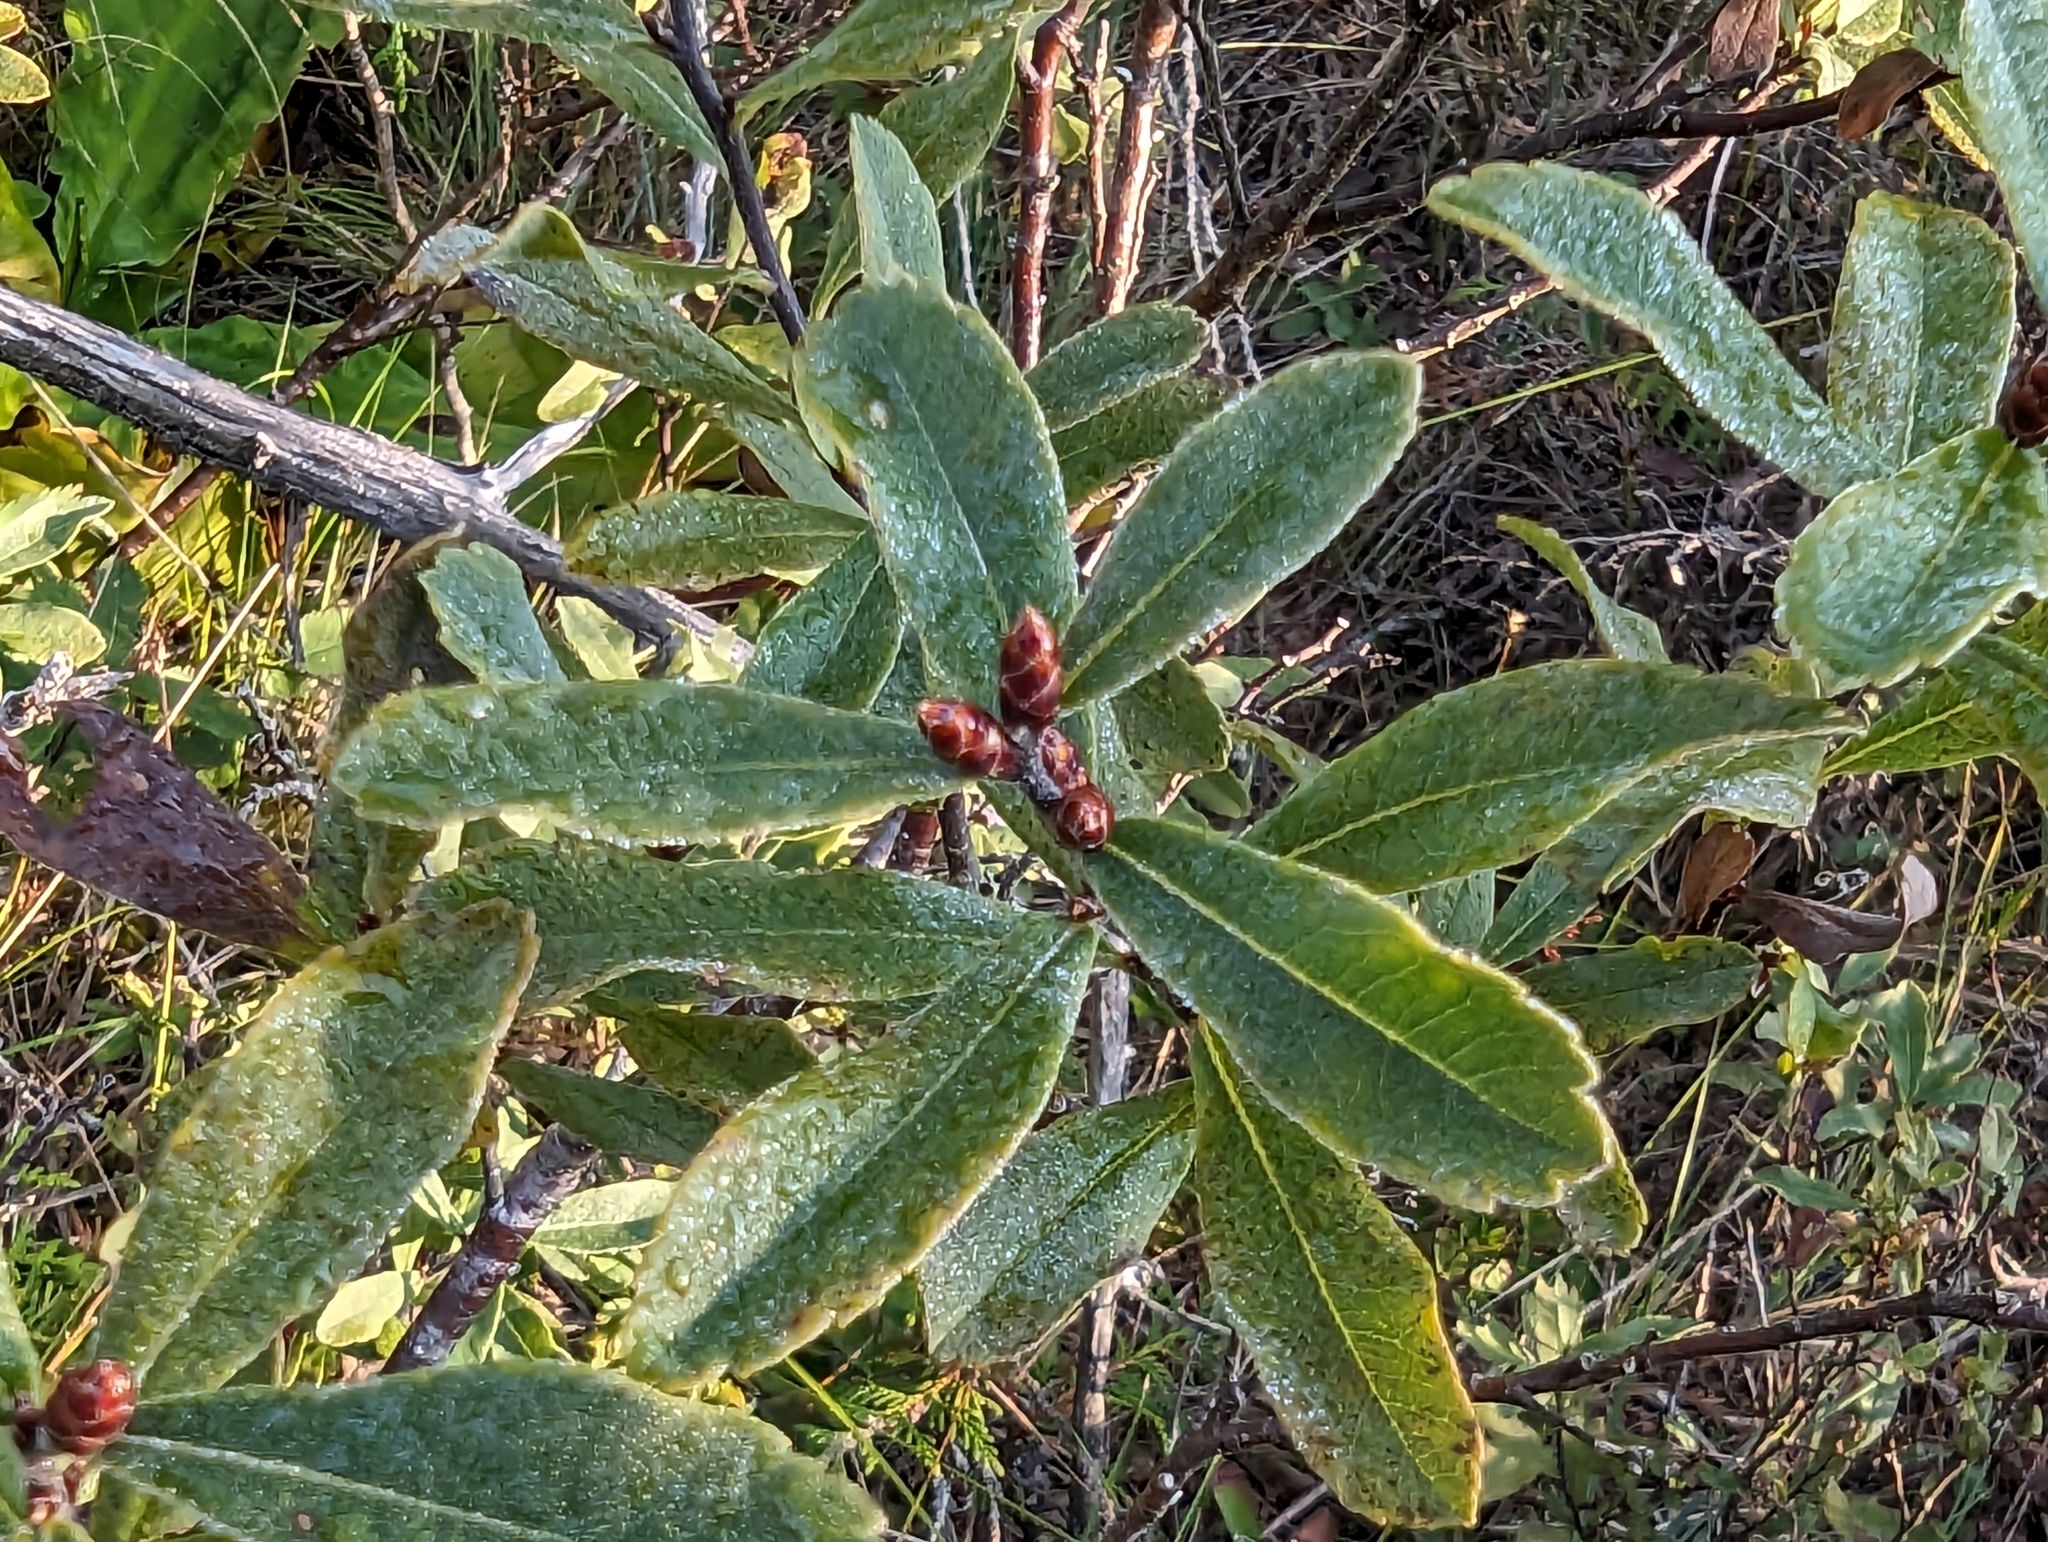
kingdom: Plantae
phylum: Tracheophyta
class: Magnoliopsida
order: Fagales
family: Myricaceae
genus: Myrica
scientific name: Myrica gale
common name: Sweet gale
